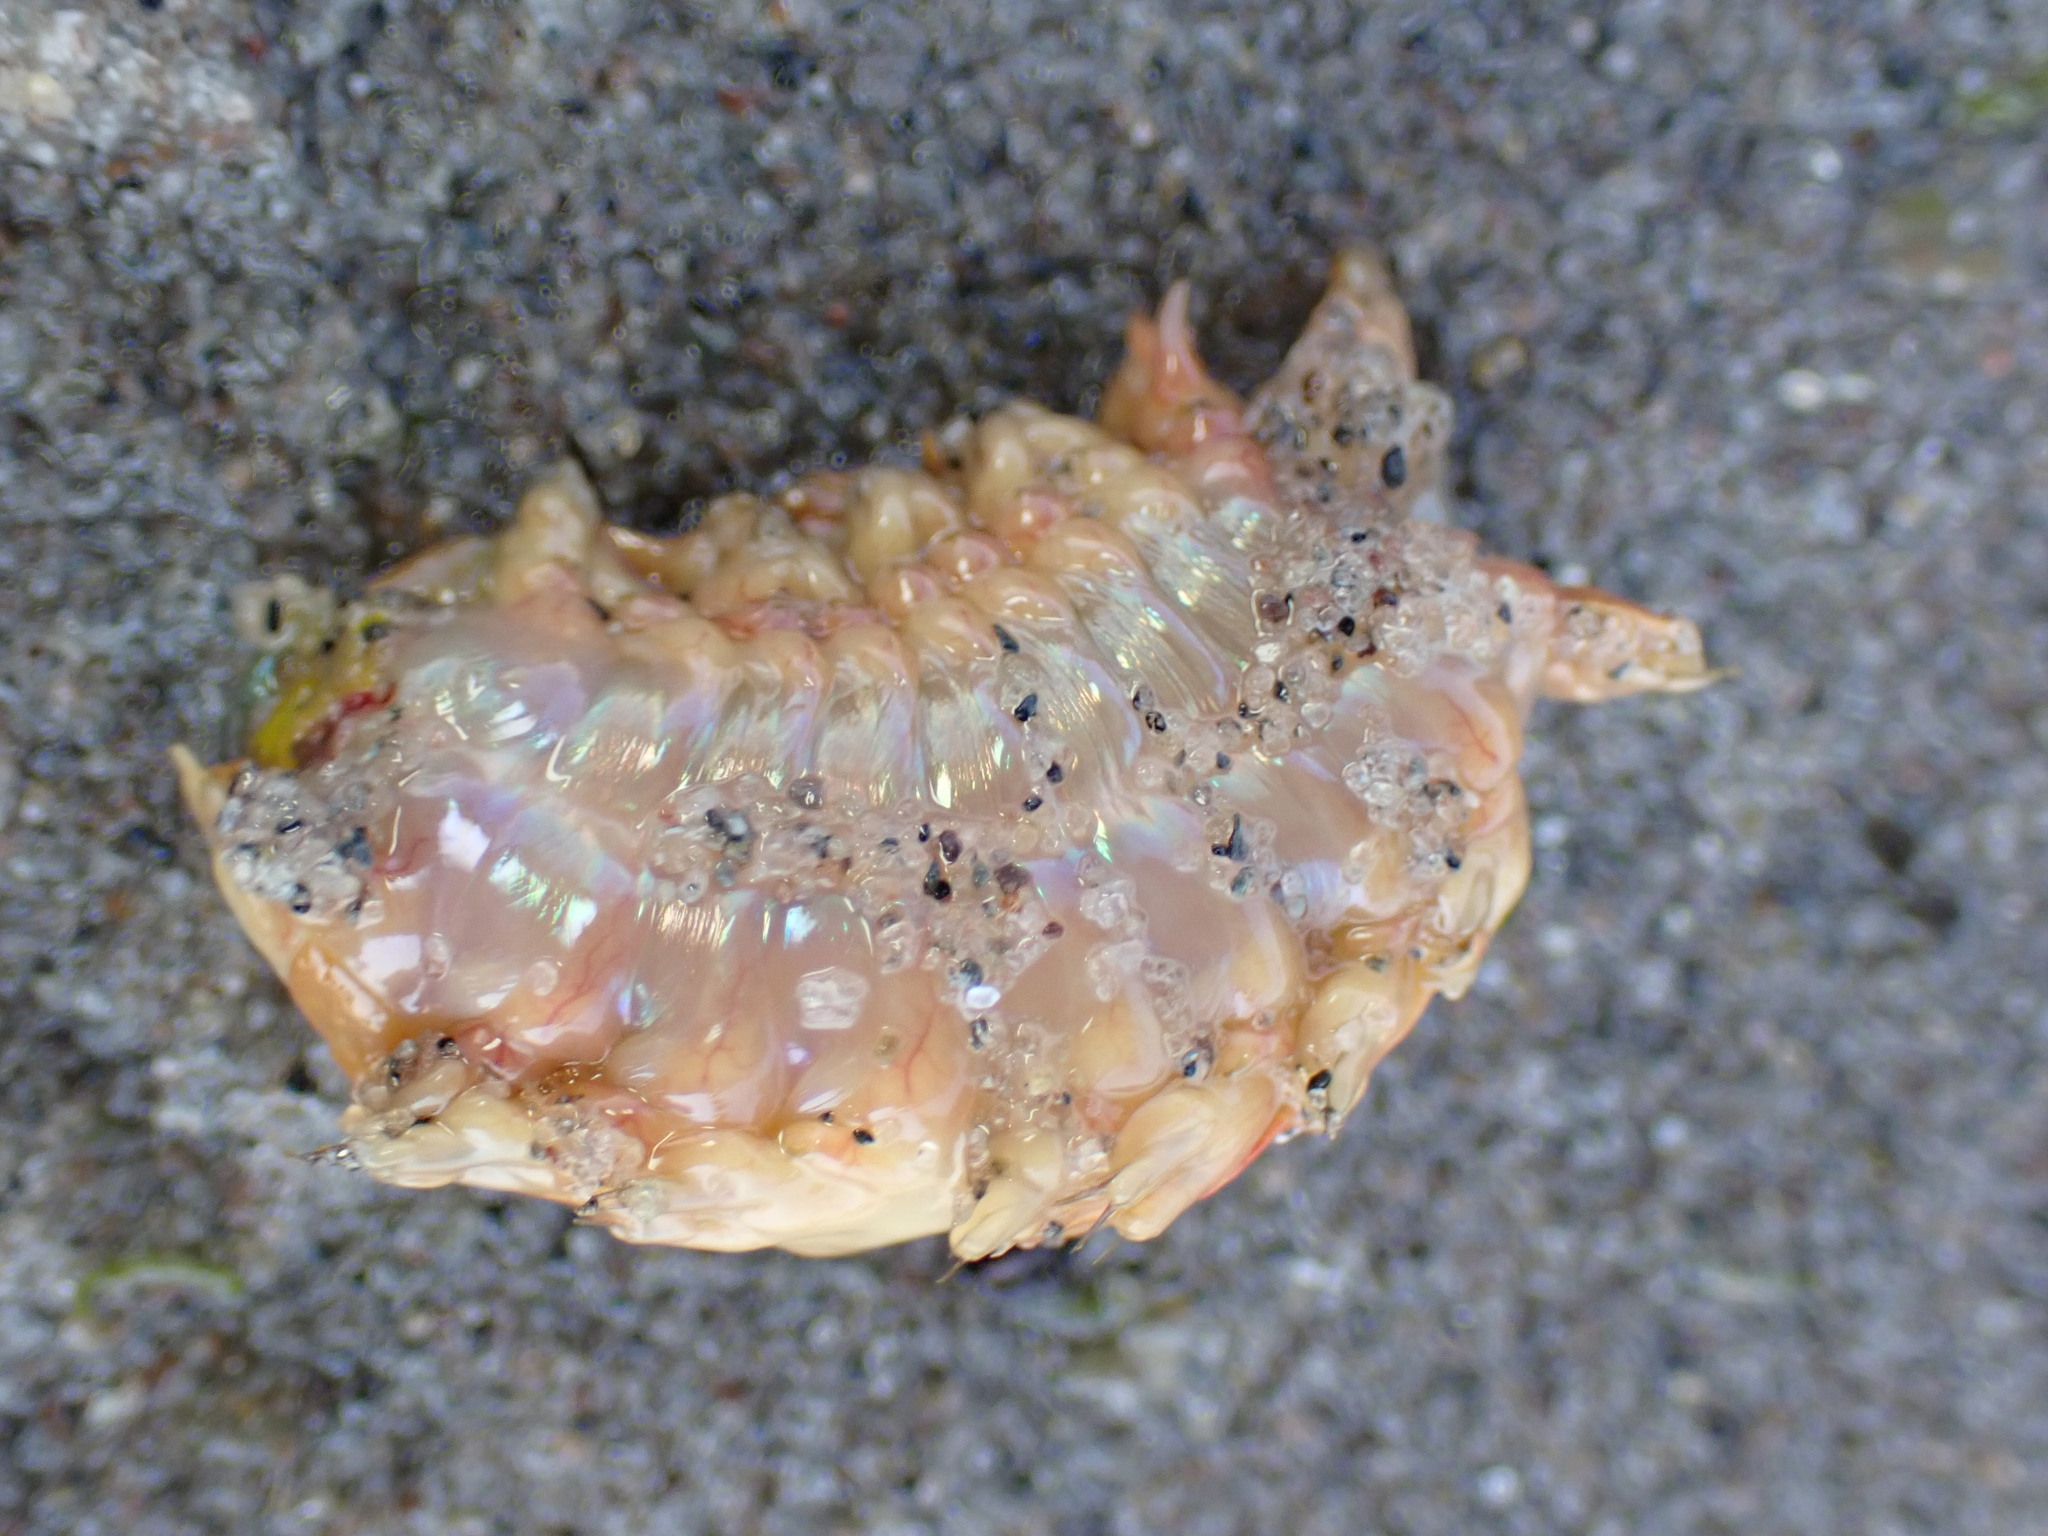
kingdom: Animalia
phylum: Annelida
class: Polychaeta
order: Phyllodocida
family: Nereididae
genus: Alitta
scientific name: Alitta succinea
